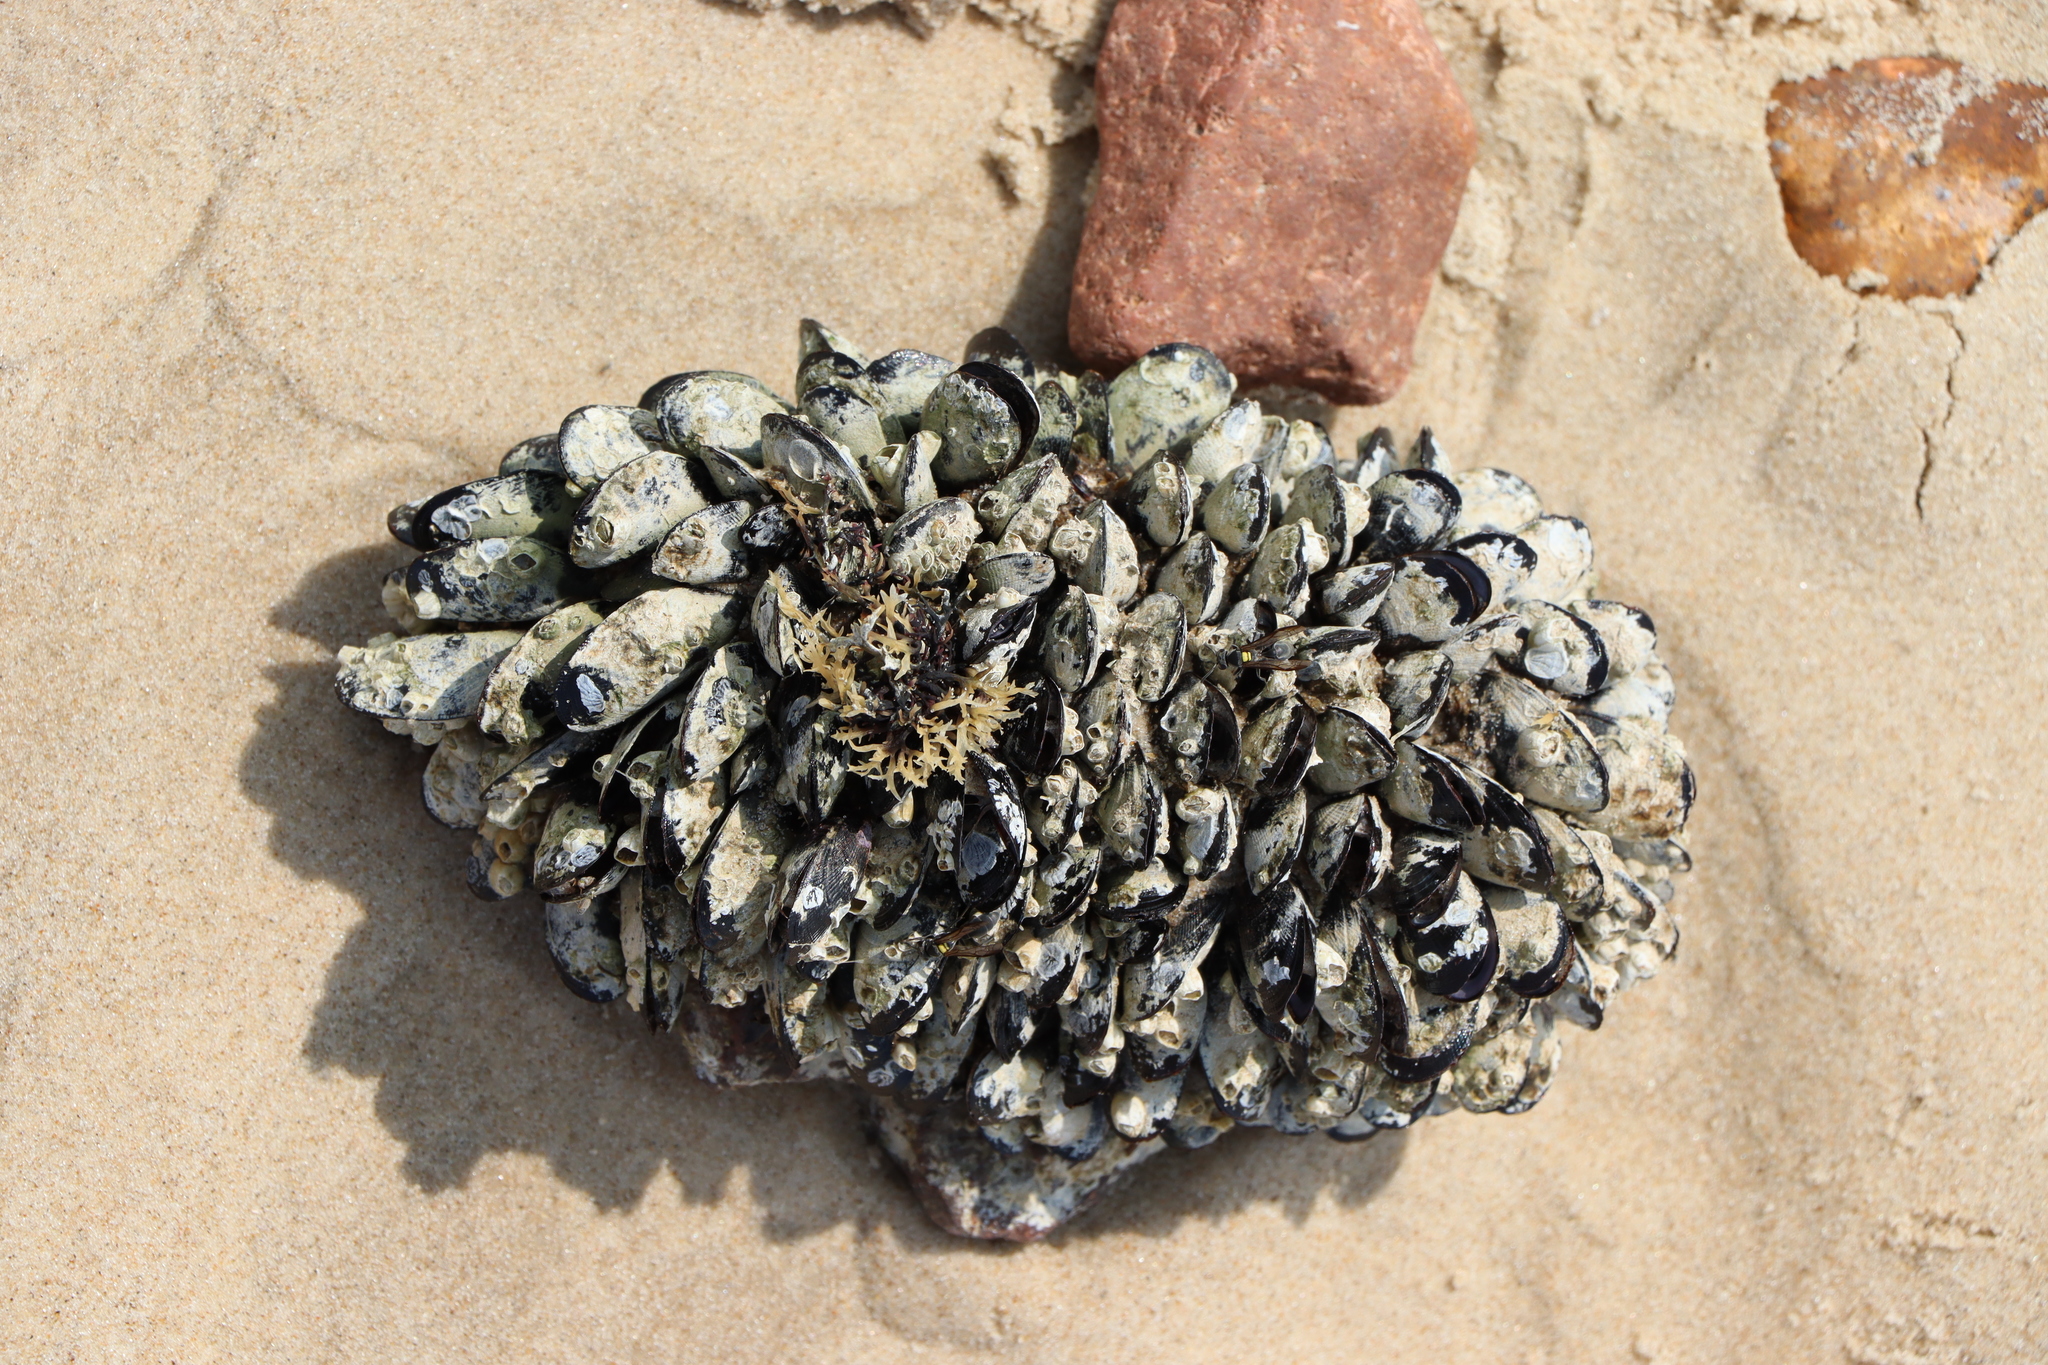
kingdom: Animalia
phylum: Mollusca
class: Bivalvia
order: Mytilida
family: Mytilidae
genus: Brachidontes
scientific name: Brachidontes rodriguezii
